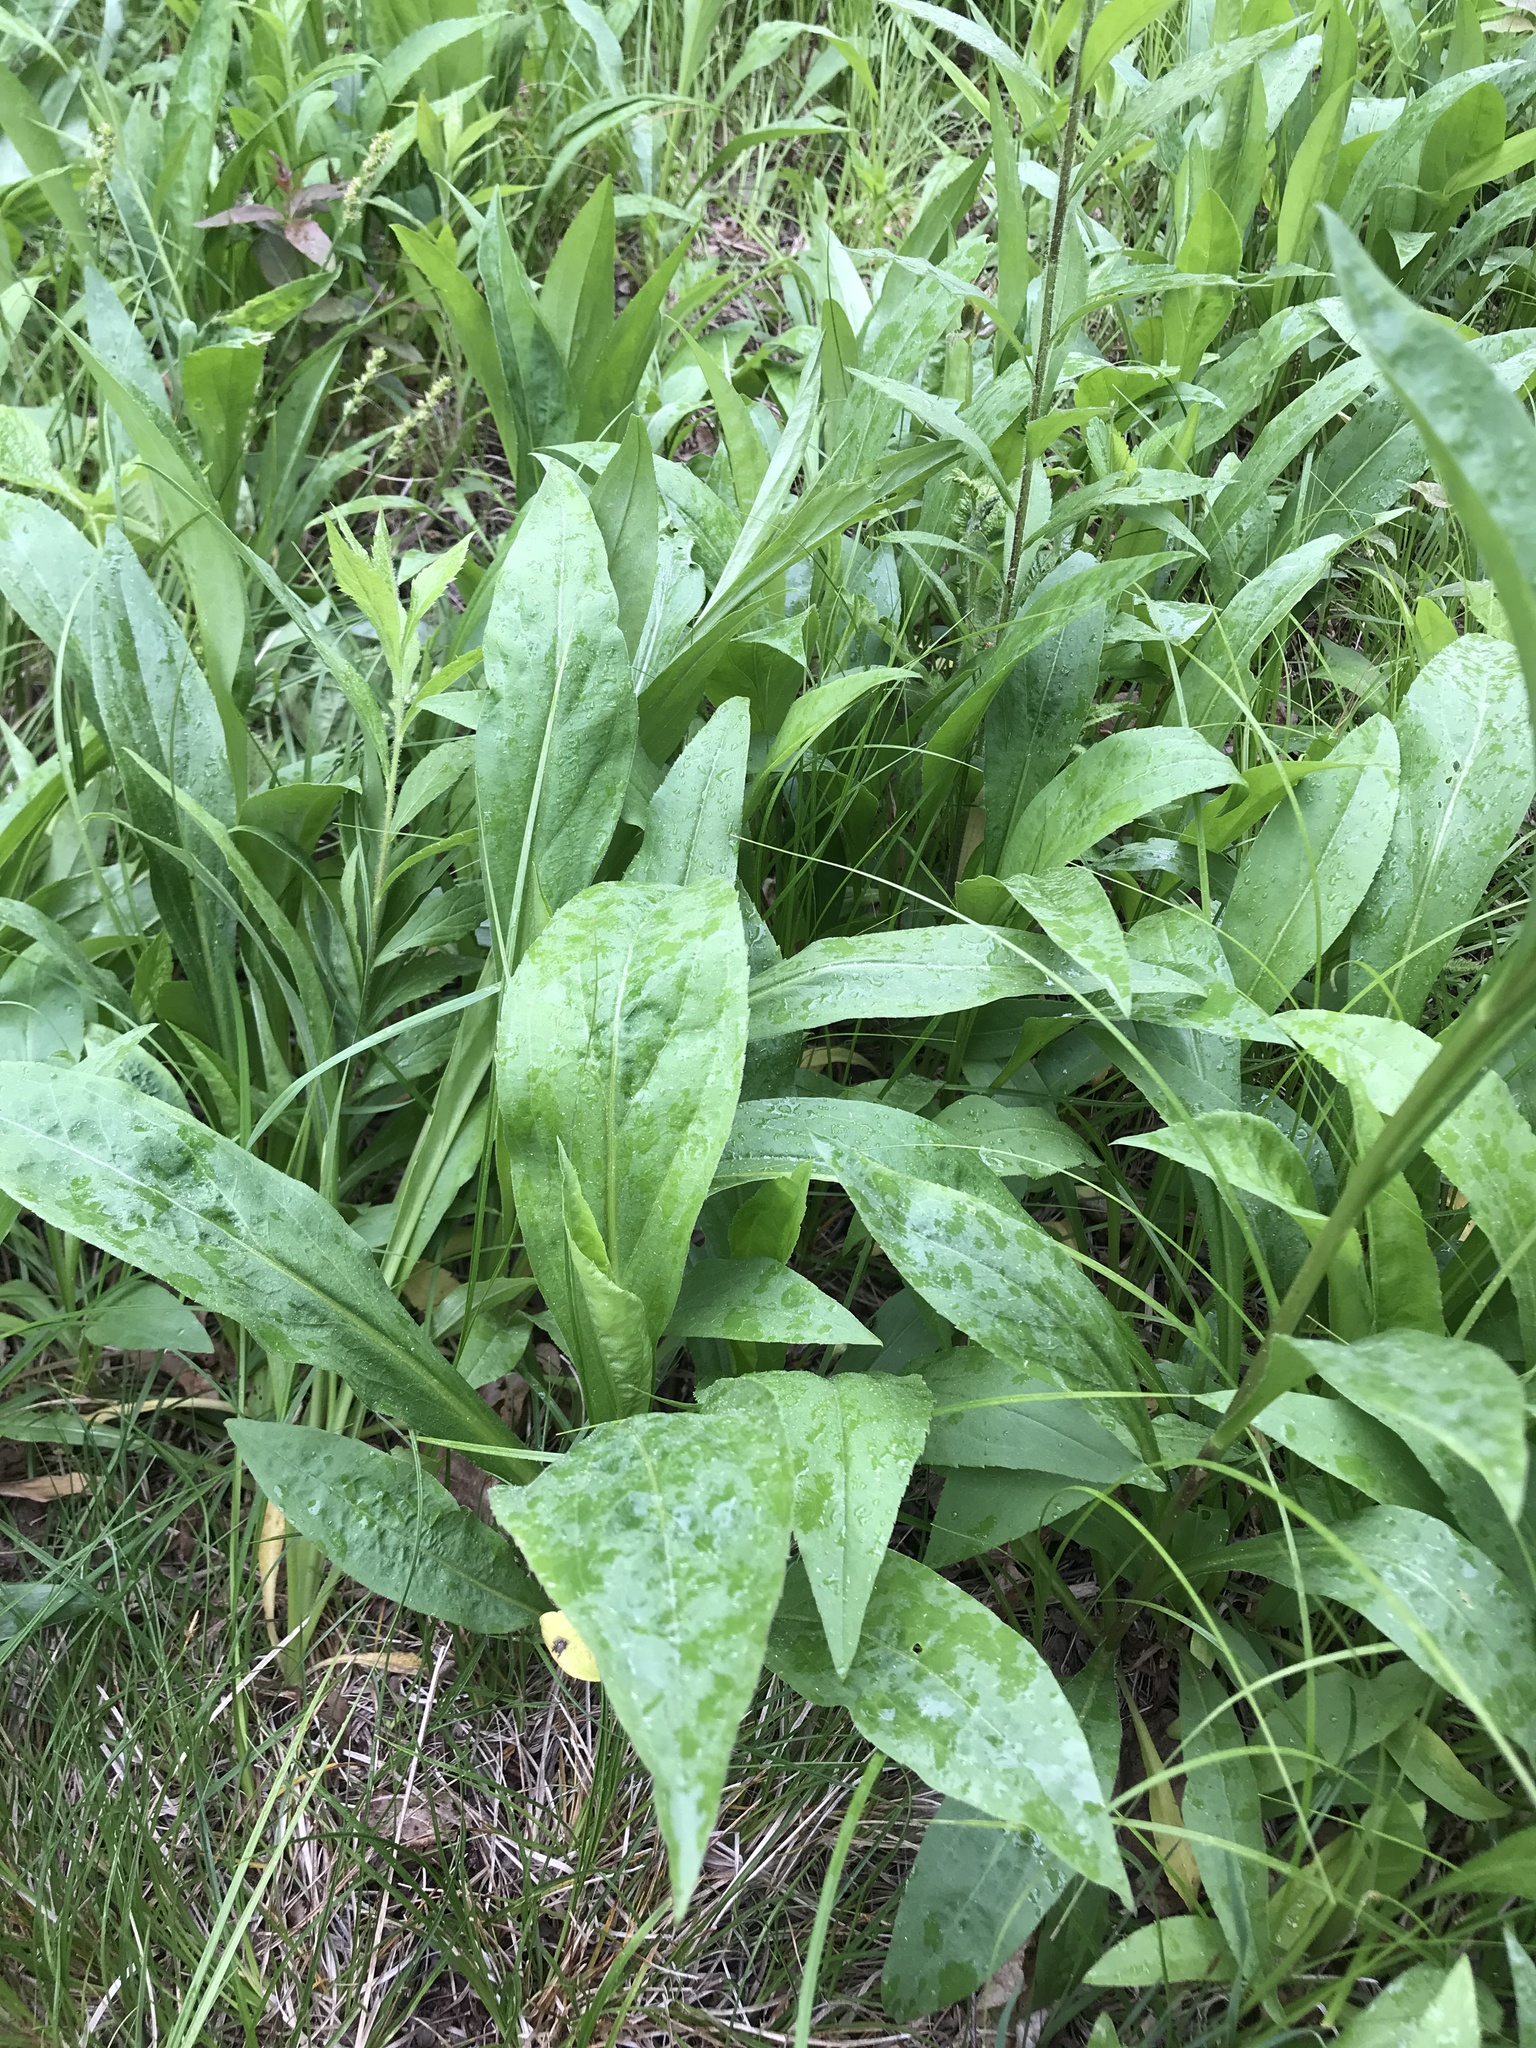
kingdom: Plantae
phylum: Tracheophyta
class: Magnoliopsida
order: Asterales
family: Asteraceae
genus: Solidago
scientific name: Solidago juncea
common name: Early goldenrod
